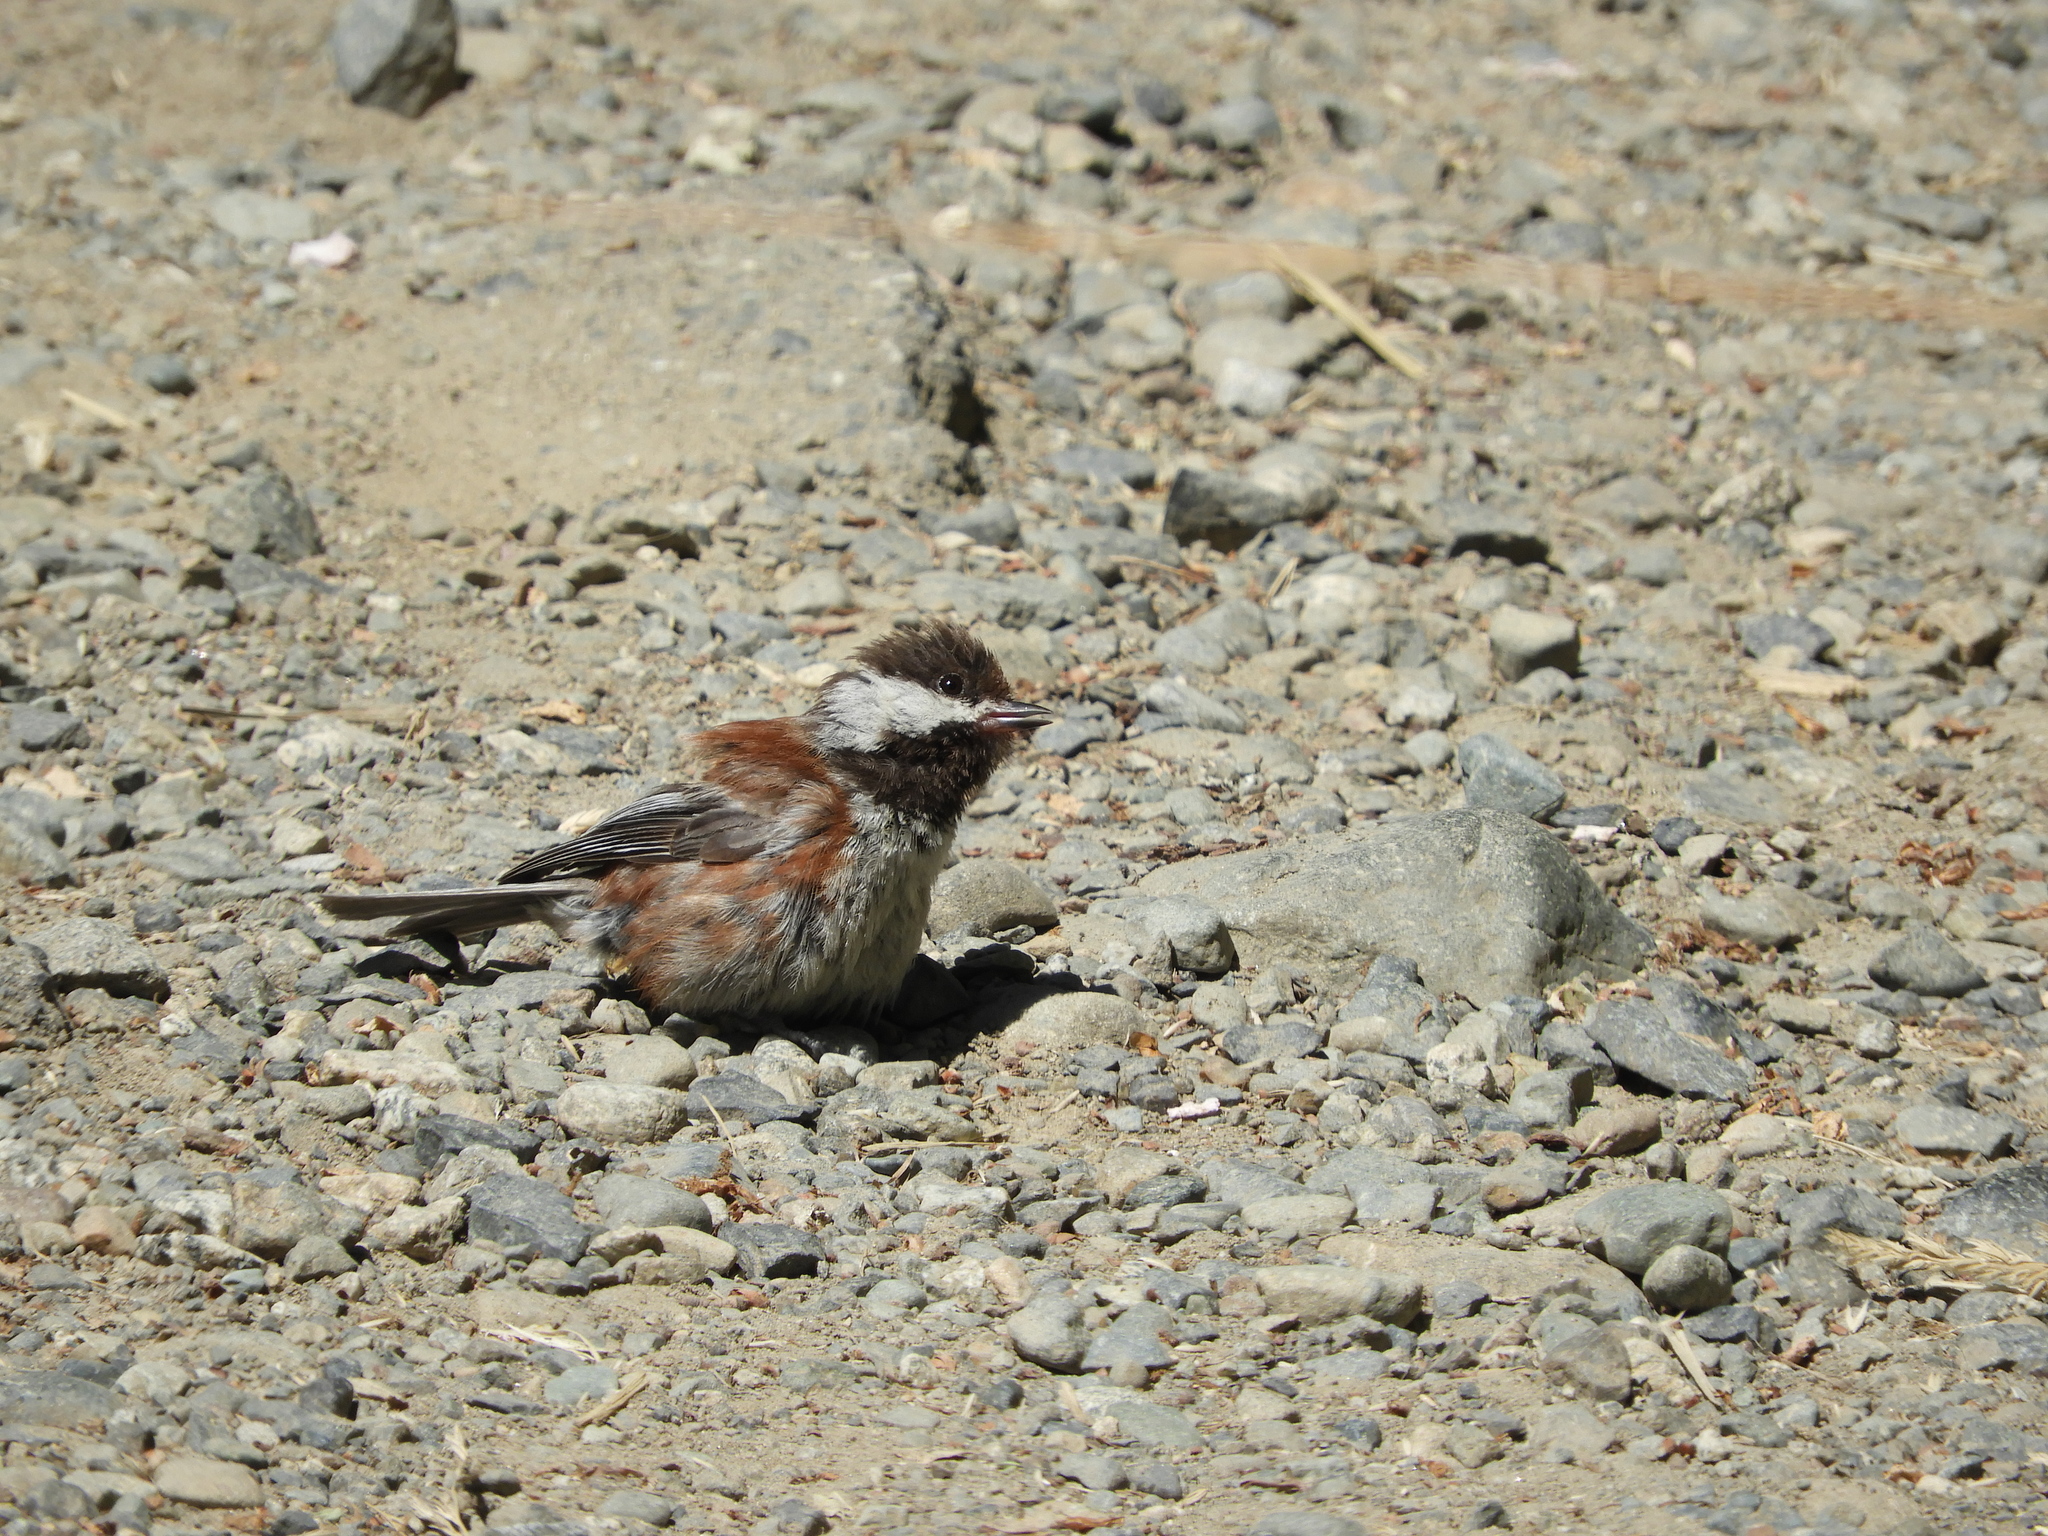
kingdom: Animalia
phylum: Chordata
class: Aves
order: Passeriformes
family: Paridae
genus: Poecile
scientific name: Poecile rufescens
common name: Chestnut-backed chickadee
